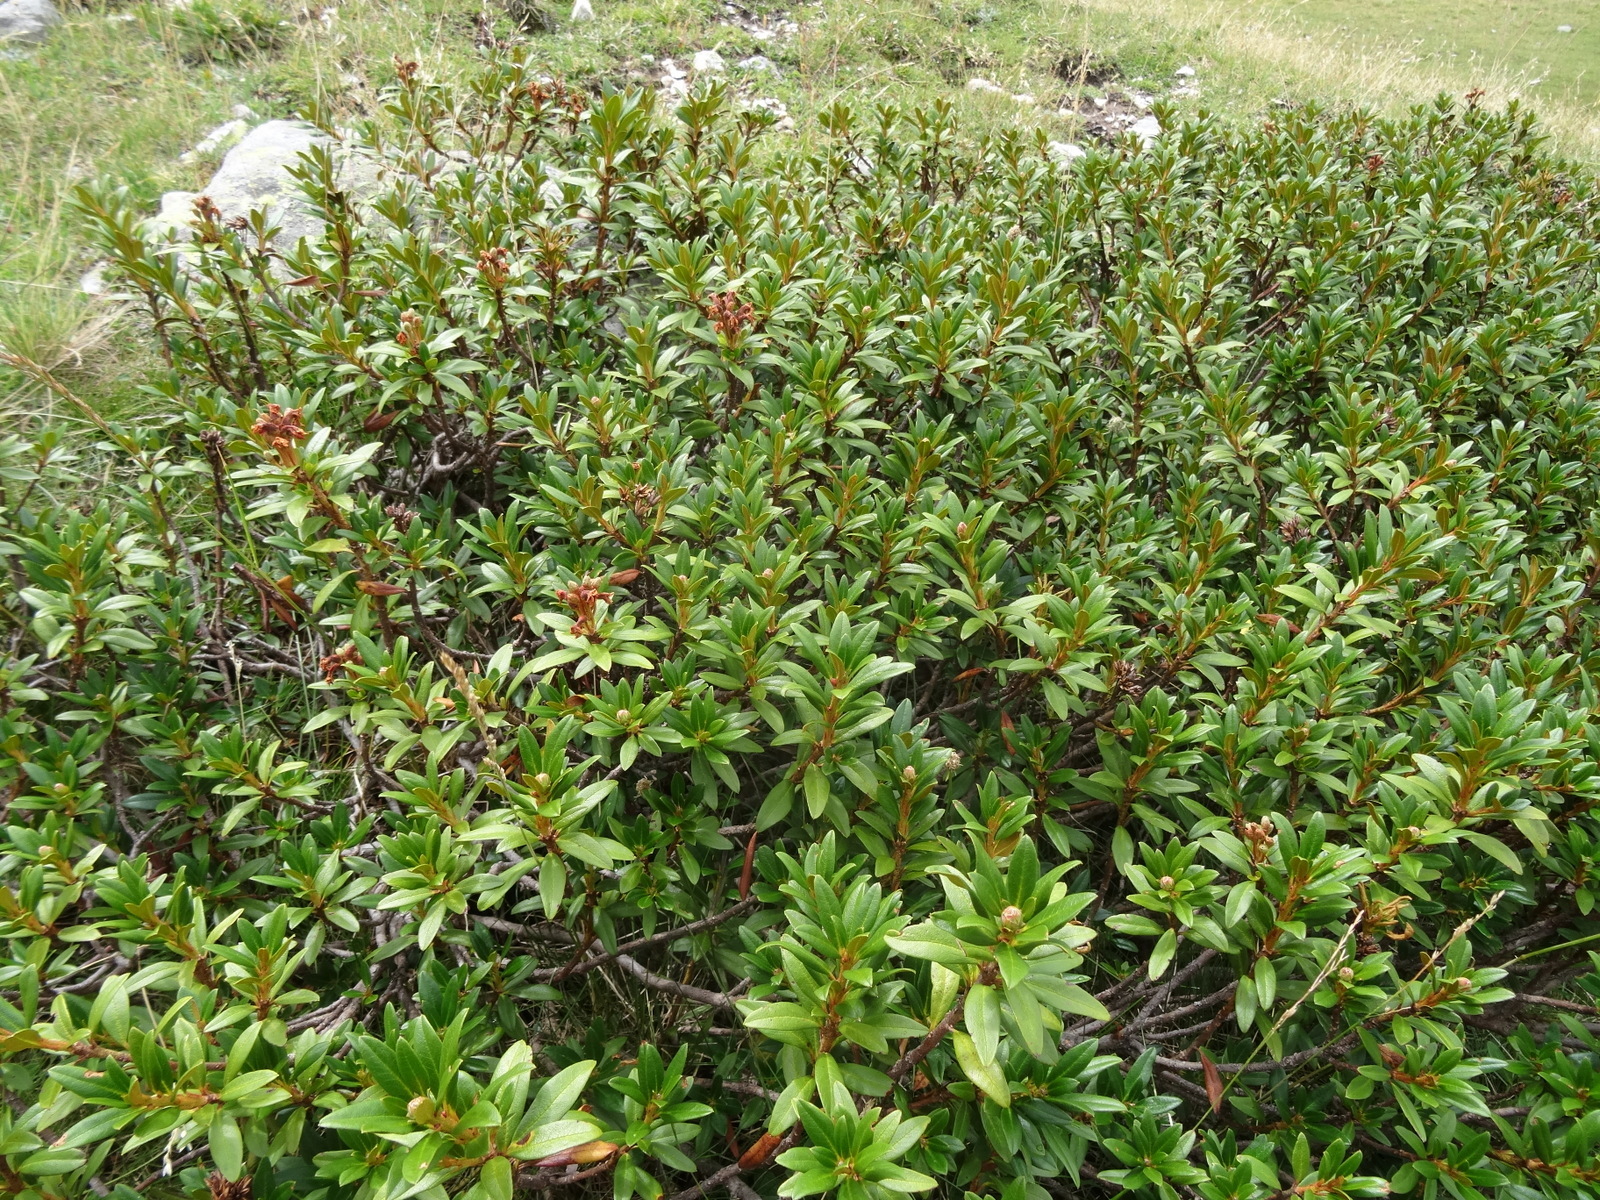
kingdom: Plantae
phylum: Tracheophyta
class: Magnoliopsida
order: Ericales
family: Ericaceae
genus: Rhododendron
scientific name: Rhododendron ferrugineum
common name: Alpenrose
